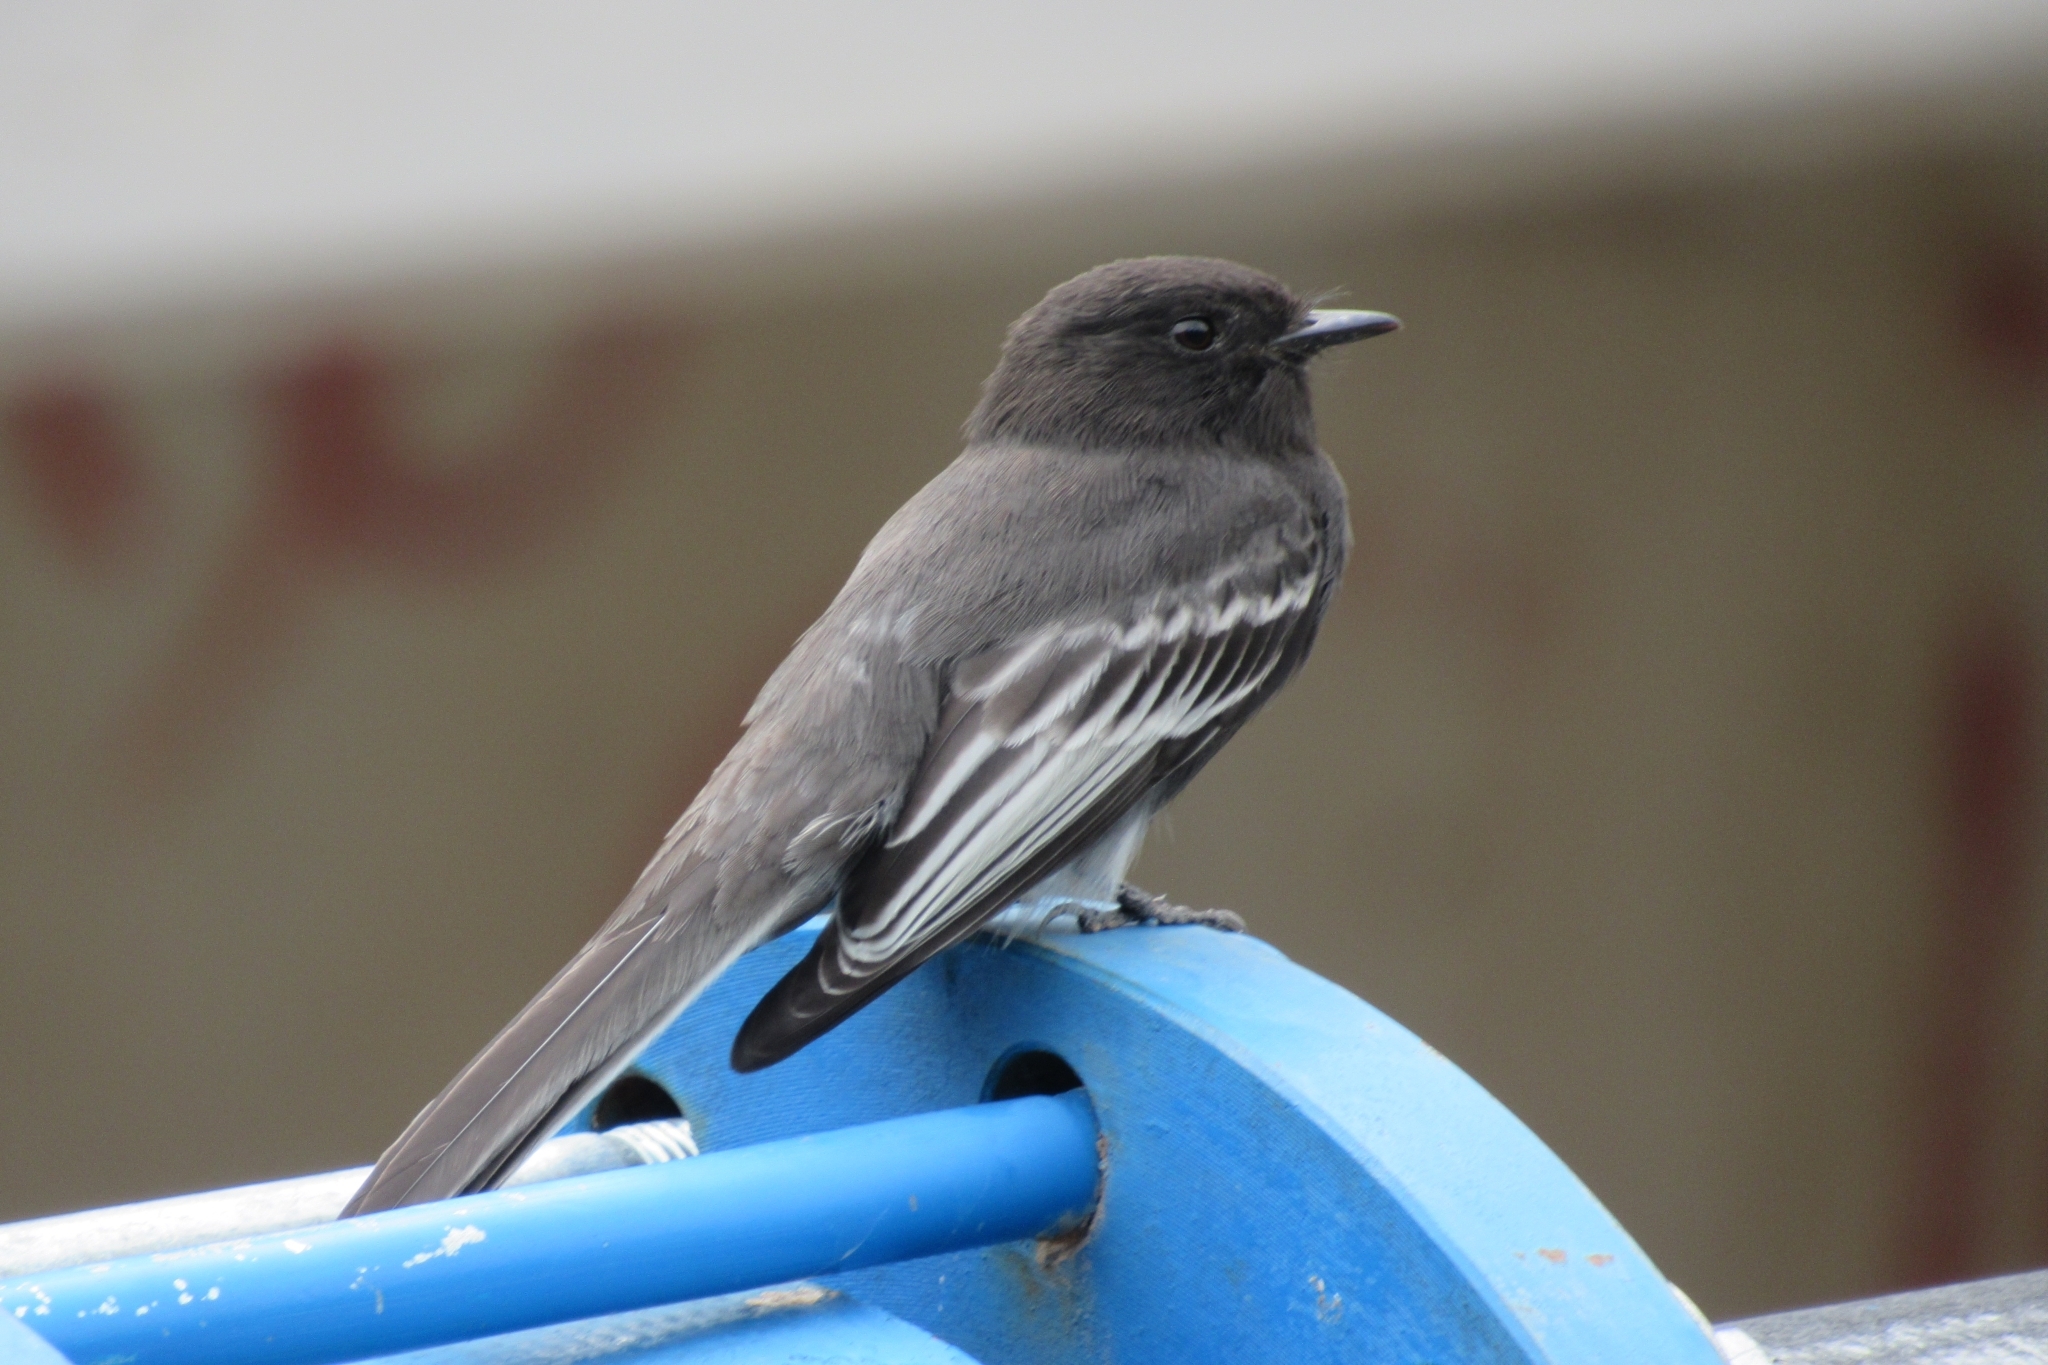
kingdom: Animalia
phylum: Chordata
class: Aves
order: Passeriformes
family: Tyrannidae
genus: Sayornis
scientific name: Sayornis nigricans
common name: Black phoebe
